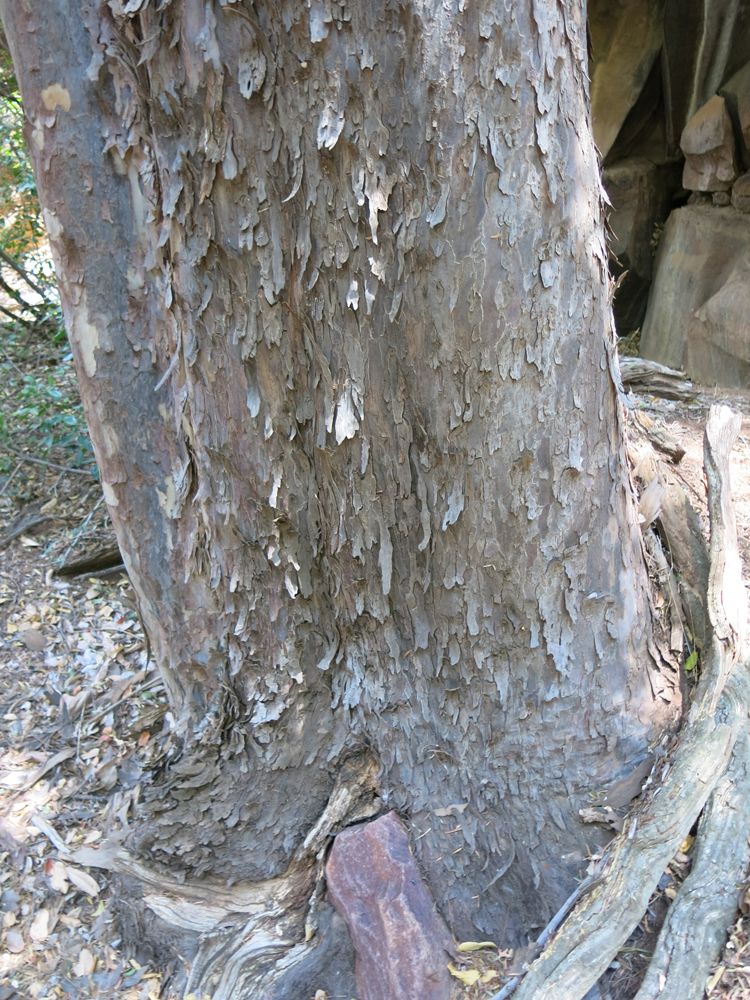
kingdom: Plantae
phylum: Tracheophyta
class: Pinopsida
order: Pinales
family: Podocarpaceae
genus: Afrocarpus
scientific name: Afrocarpus falcatus
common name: Bastard yellowwood
